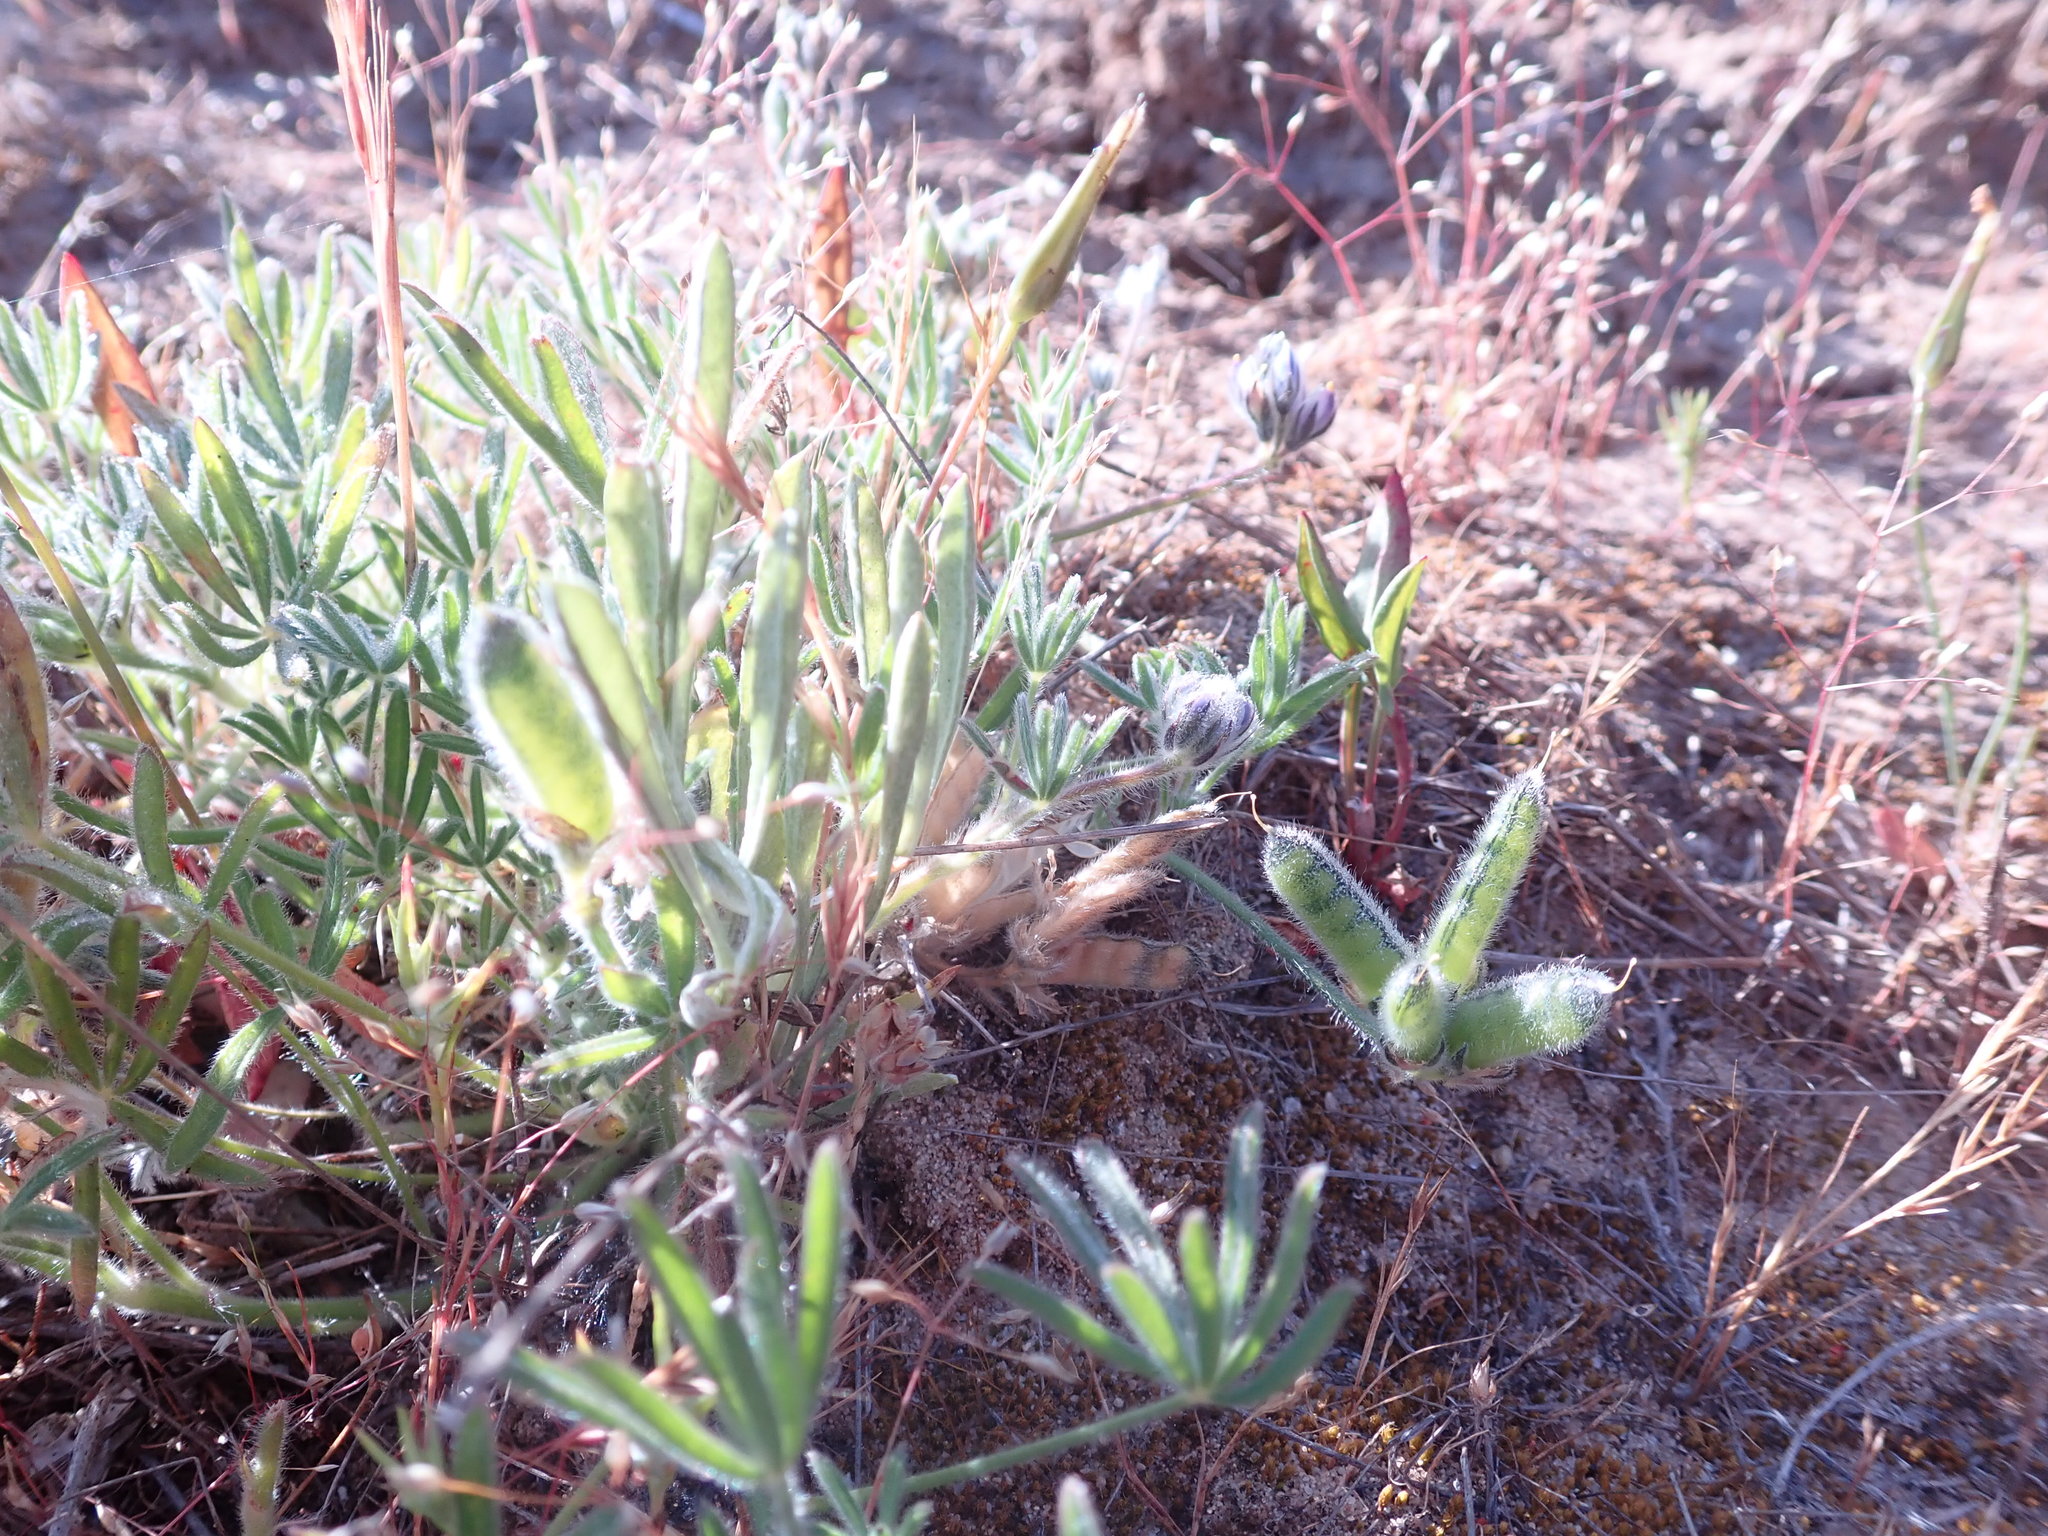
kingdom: Plantae
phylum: Tracheophyta
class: Magnoliopsida
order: Fabales
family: Fabaceae
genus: Lupinus
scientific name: Lupinus bicolor
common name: Miniature lupine
